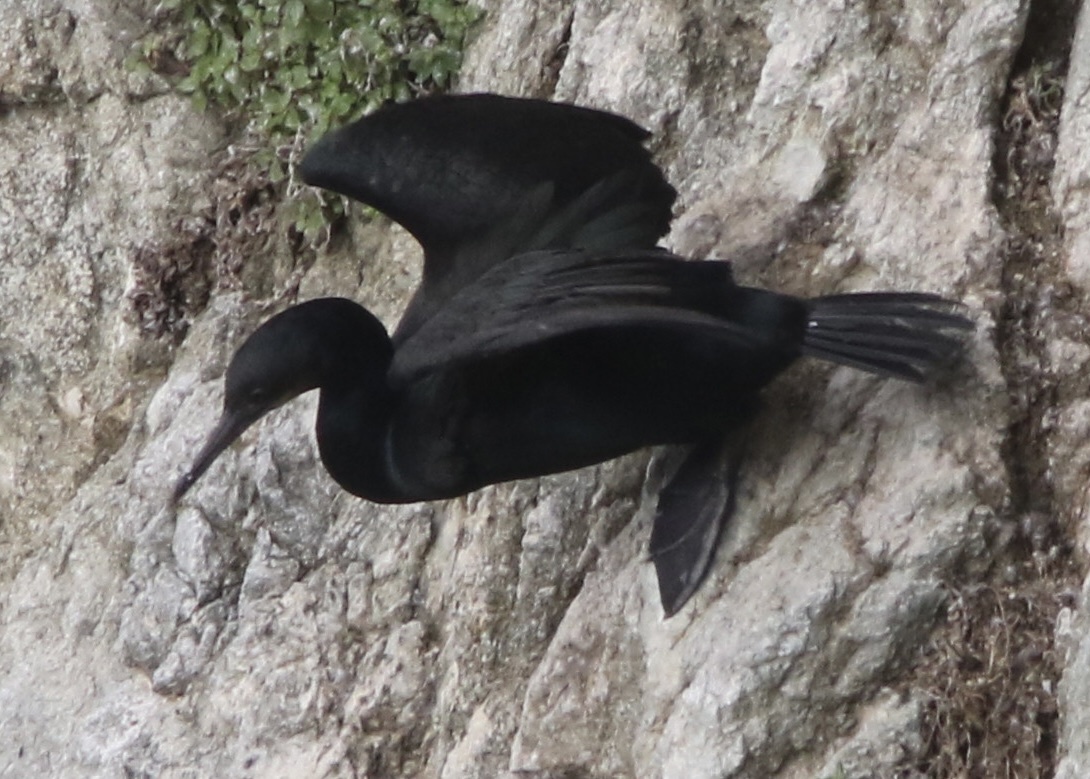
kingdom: Animalia
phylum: Chordata
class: Aves
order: Suliformes
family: Phalacrocoracidae
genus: Urile
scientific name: Urile penicillatus
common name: Brandt's cormorant
